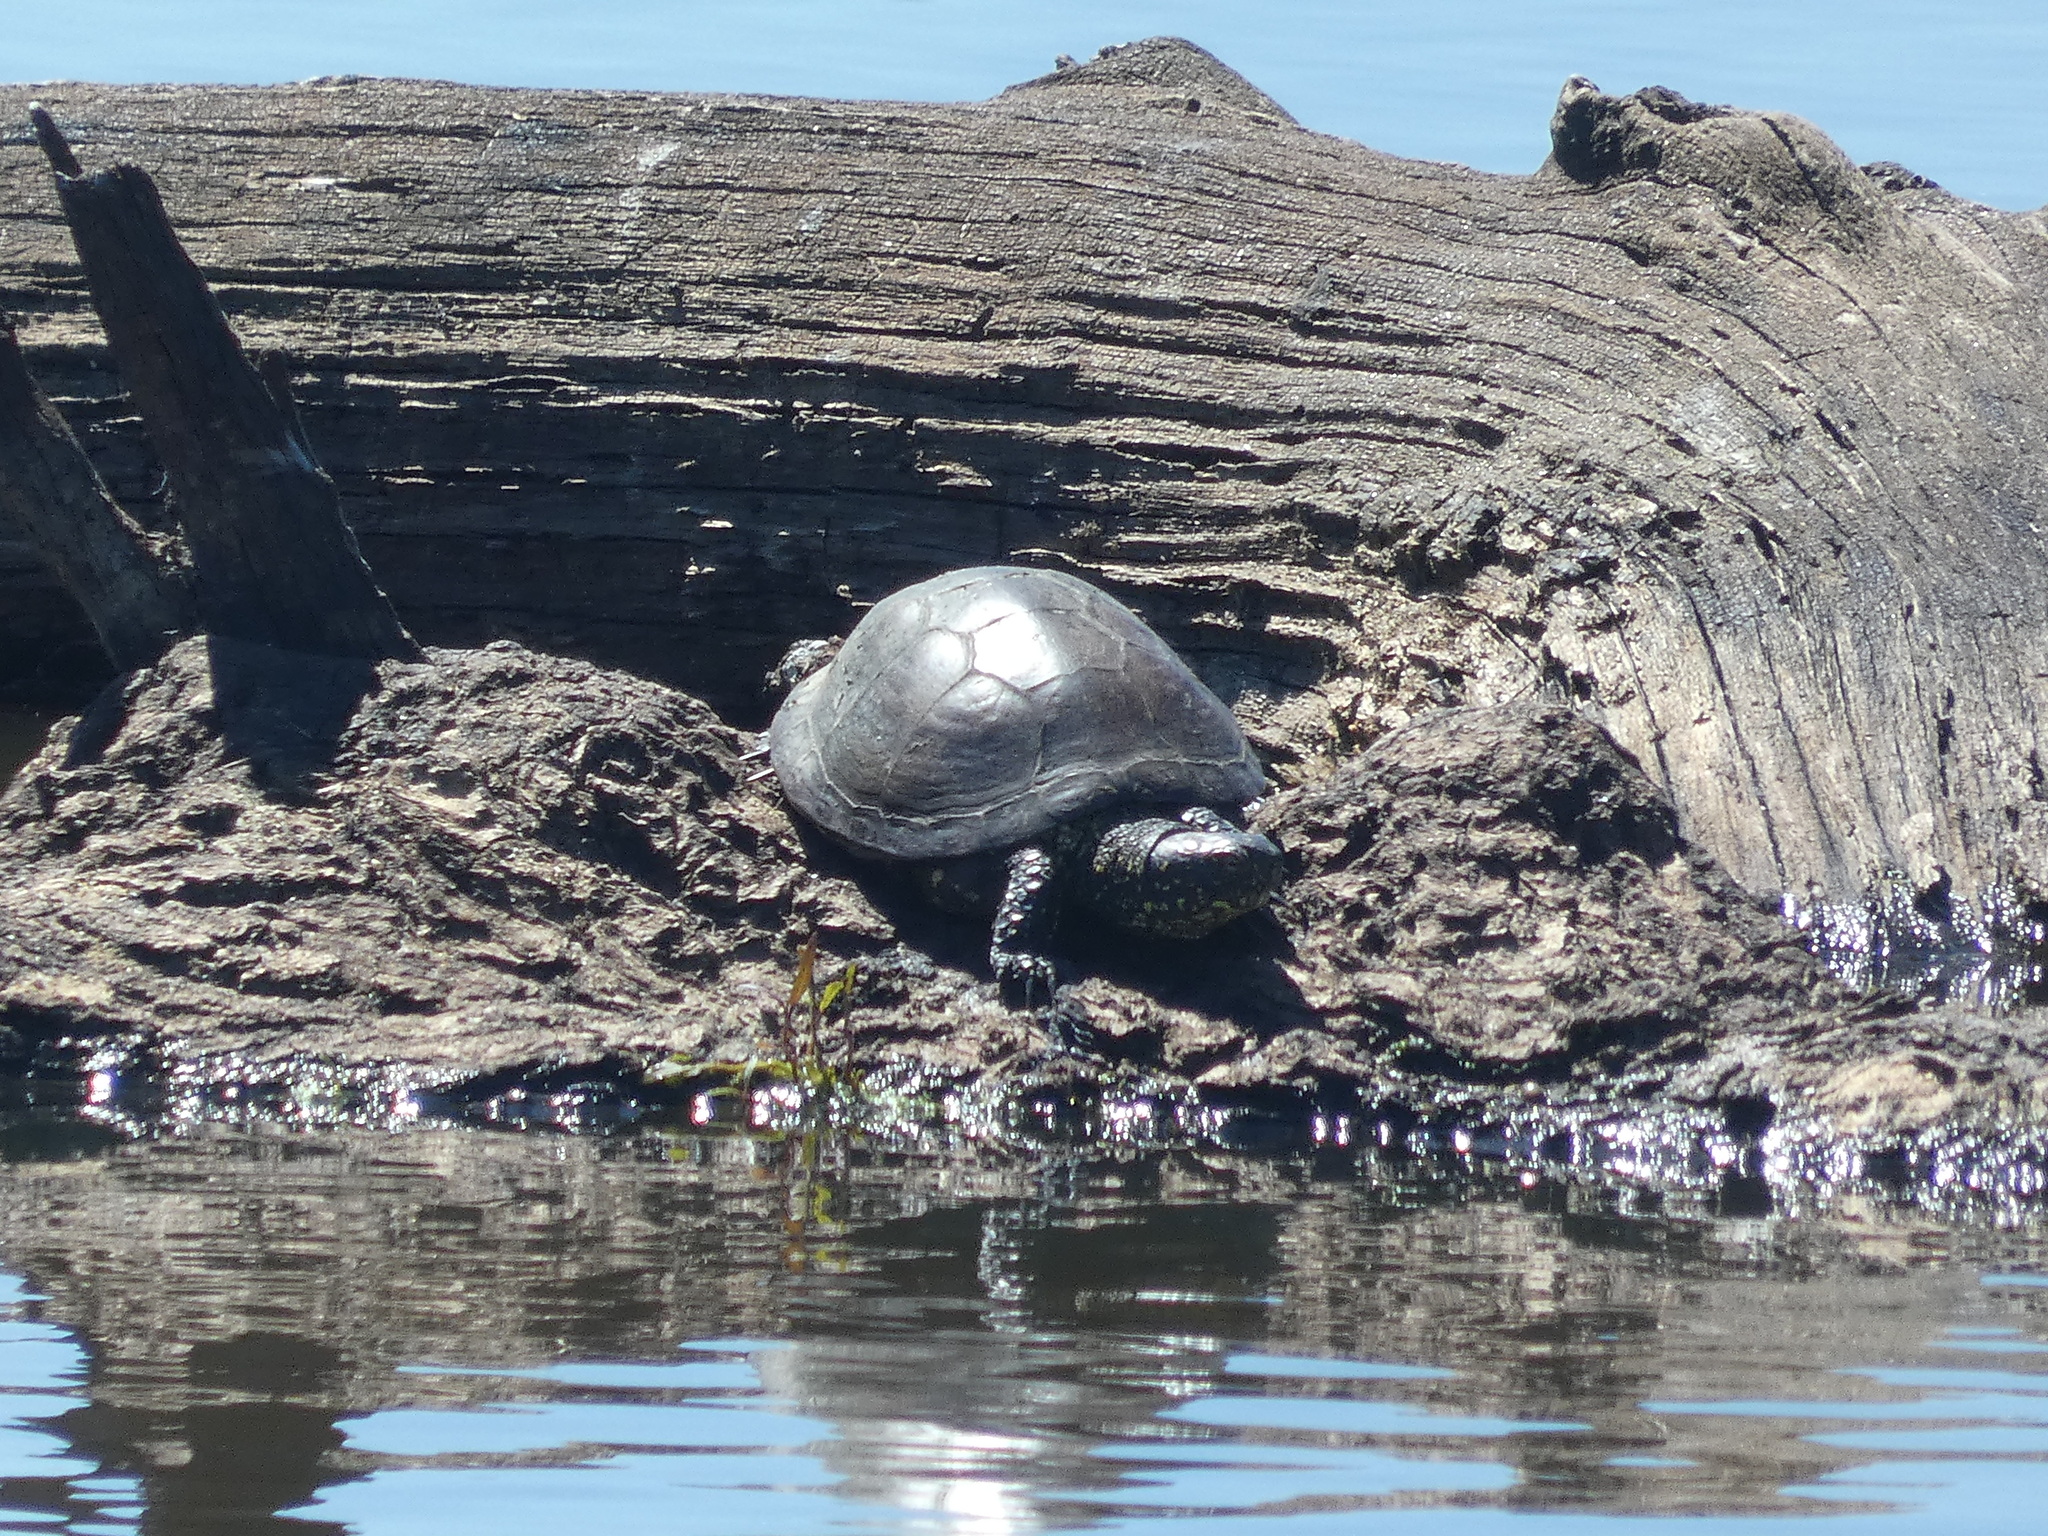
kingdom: Animalia
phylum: Chordata
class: Testudines
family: Emydidae
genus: Emys
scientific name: Emys orbicularis
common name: European pond turtle
